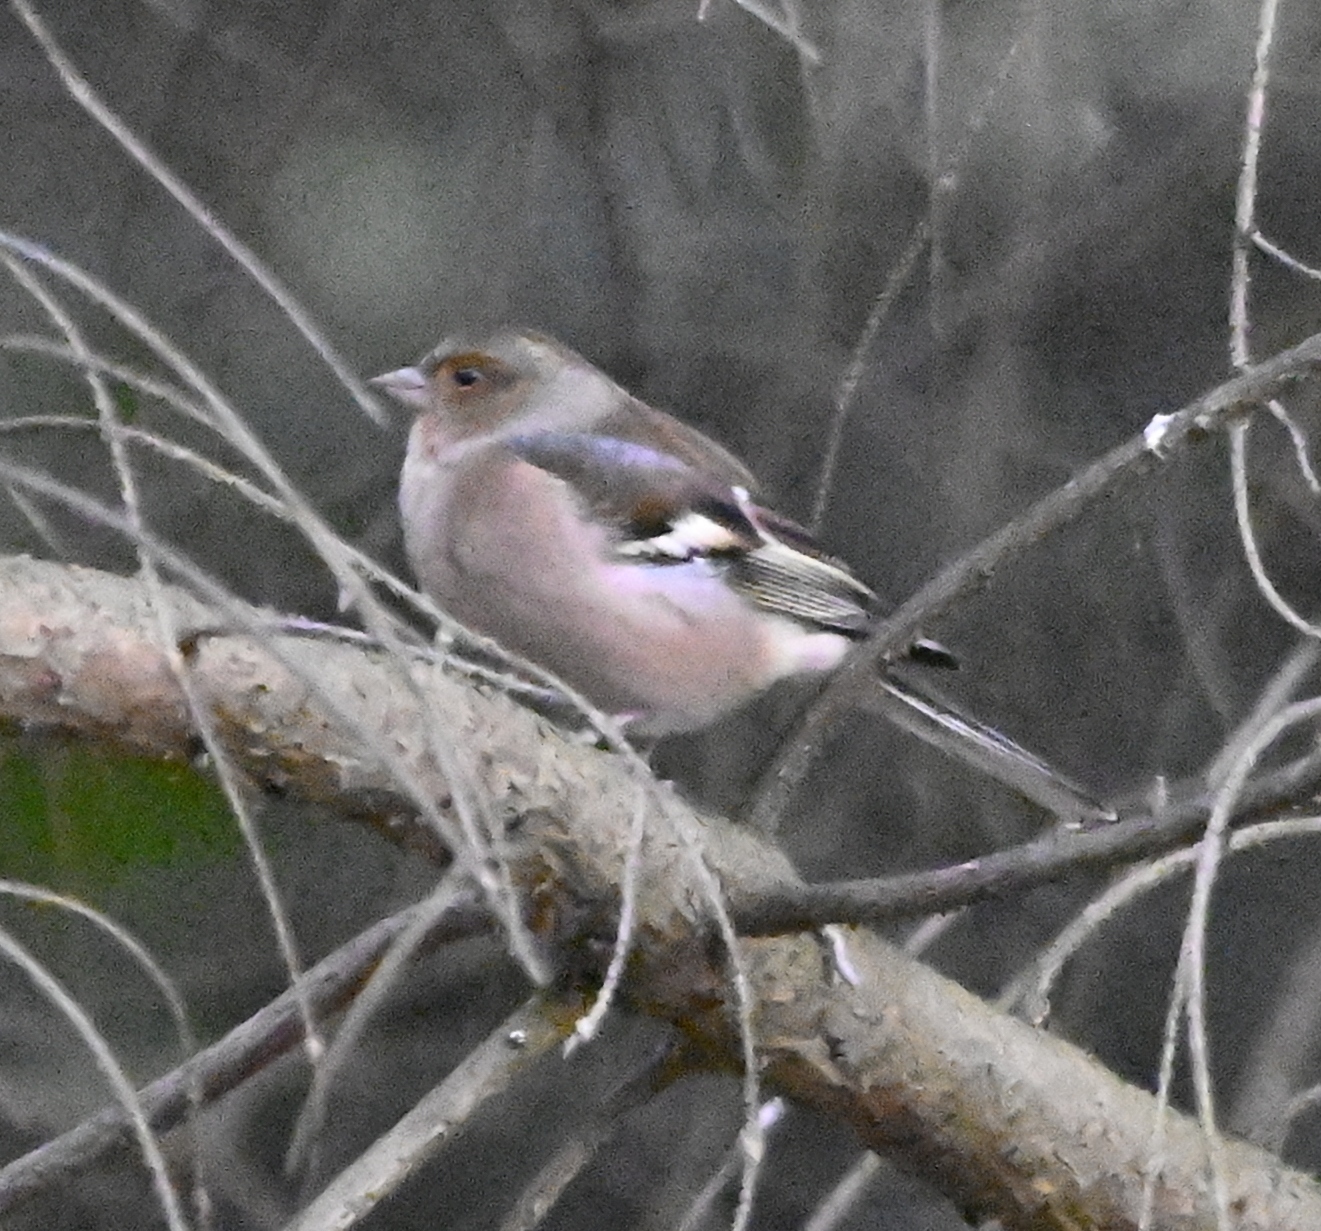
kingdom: Animalia
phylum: Chordata
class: Aves
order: Passeriformes
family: Fringillidae
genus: Fringilla
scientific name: Fringilla coelebs
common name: Common chaffinch
